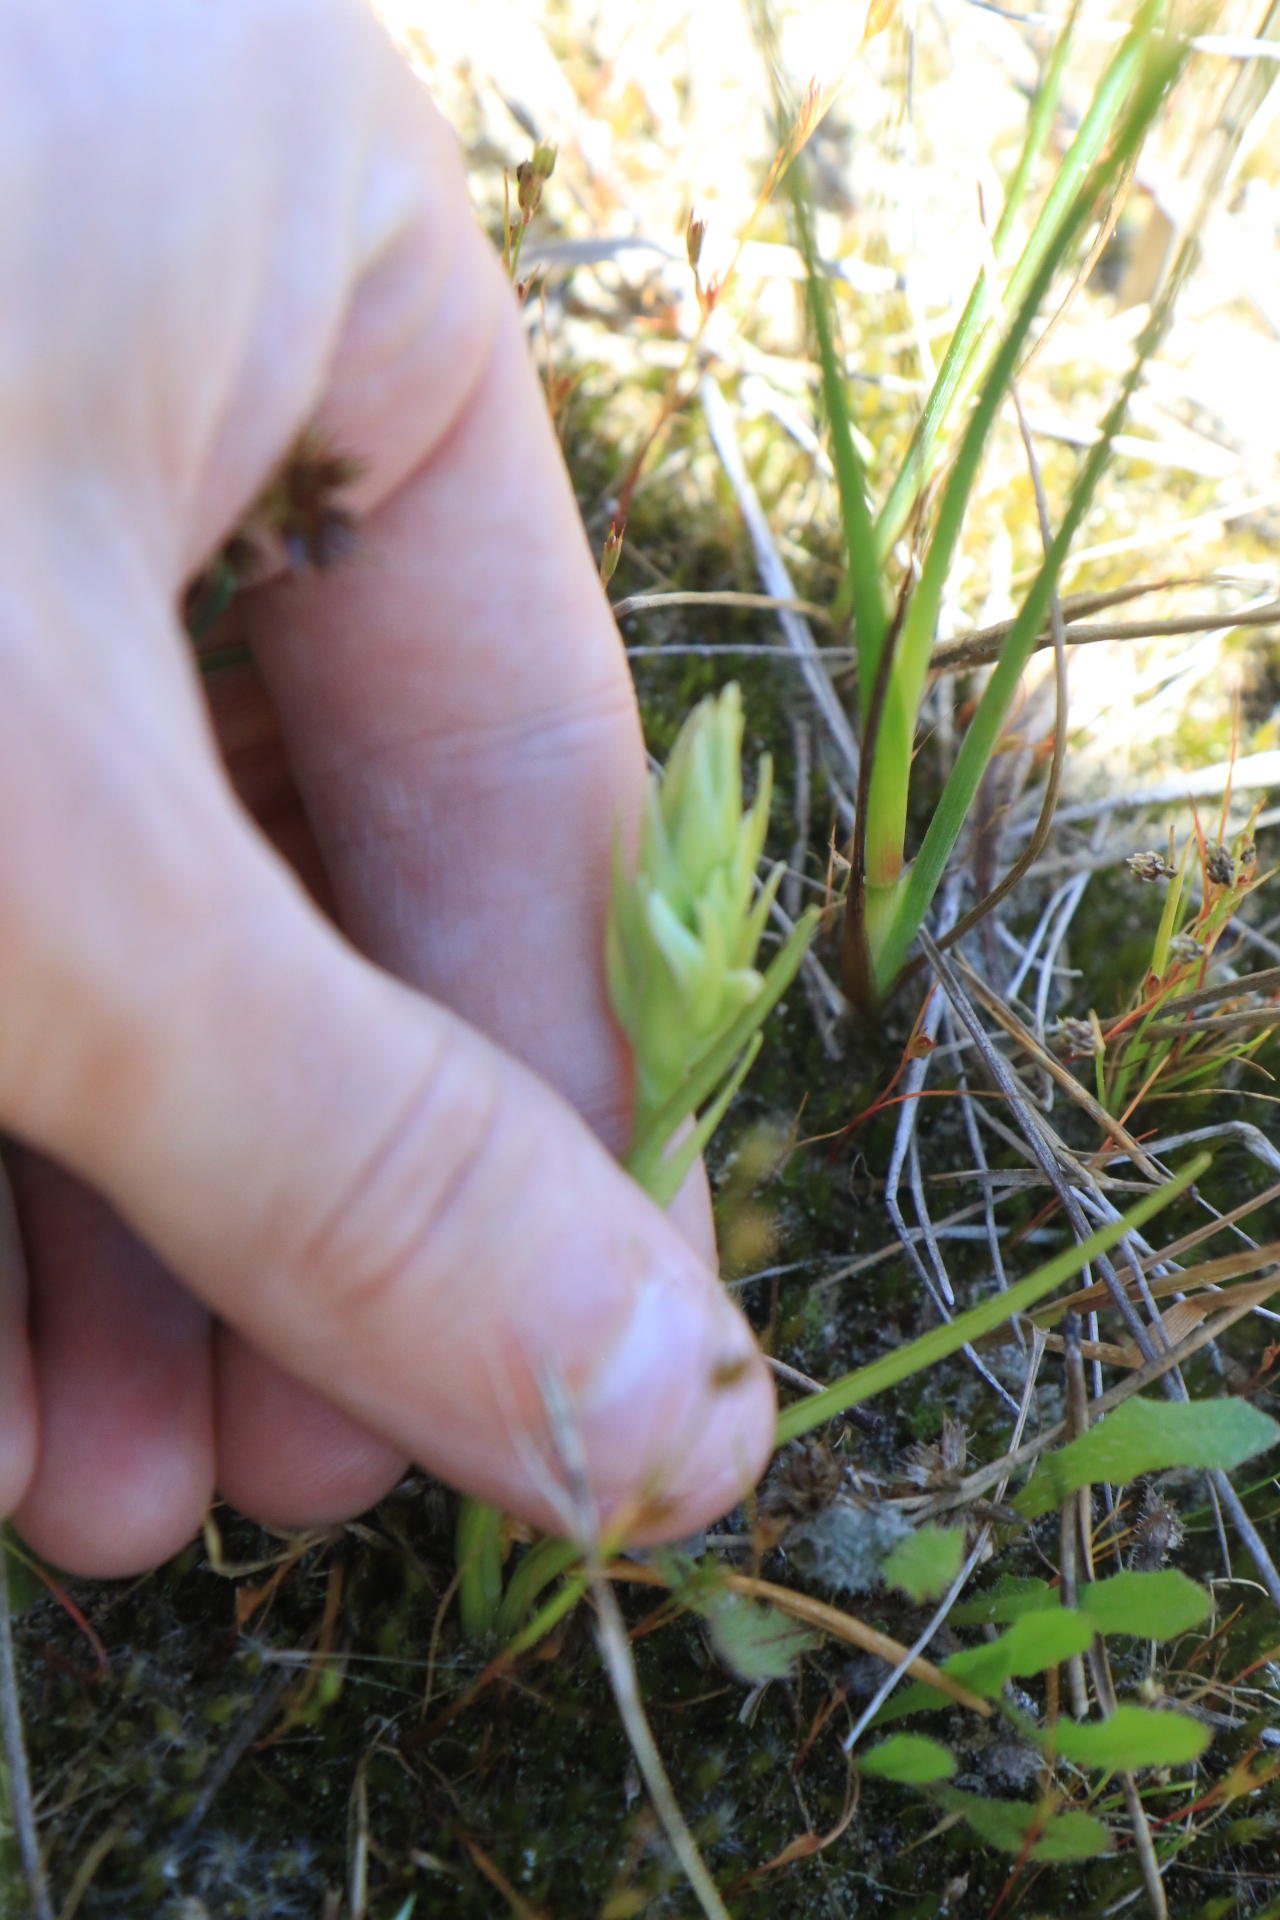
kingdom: Plantae
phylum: Tracheophyta
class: Liliopsida
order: Asparagales
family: Orchidaceae
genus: Spiranthes
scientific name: Spiranthes romanzoffiana
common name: Irish lady's-tresses
